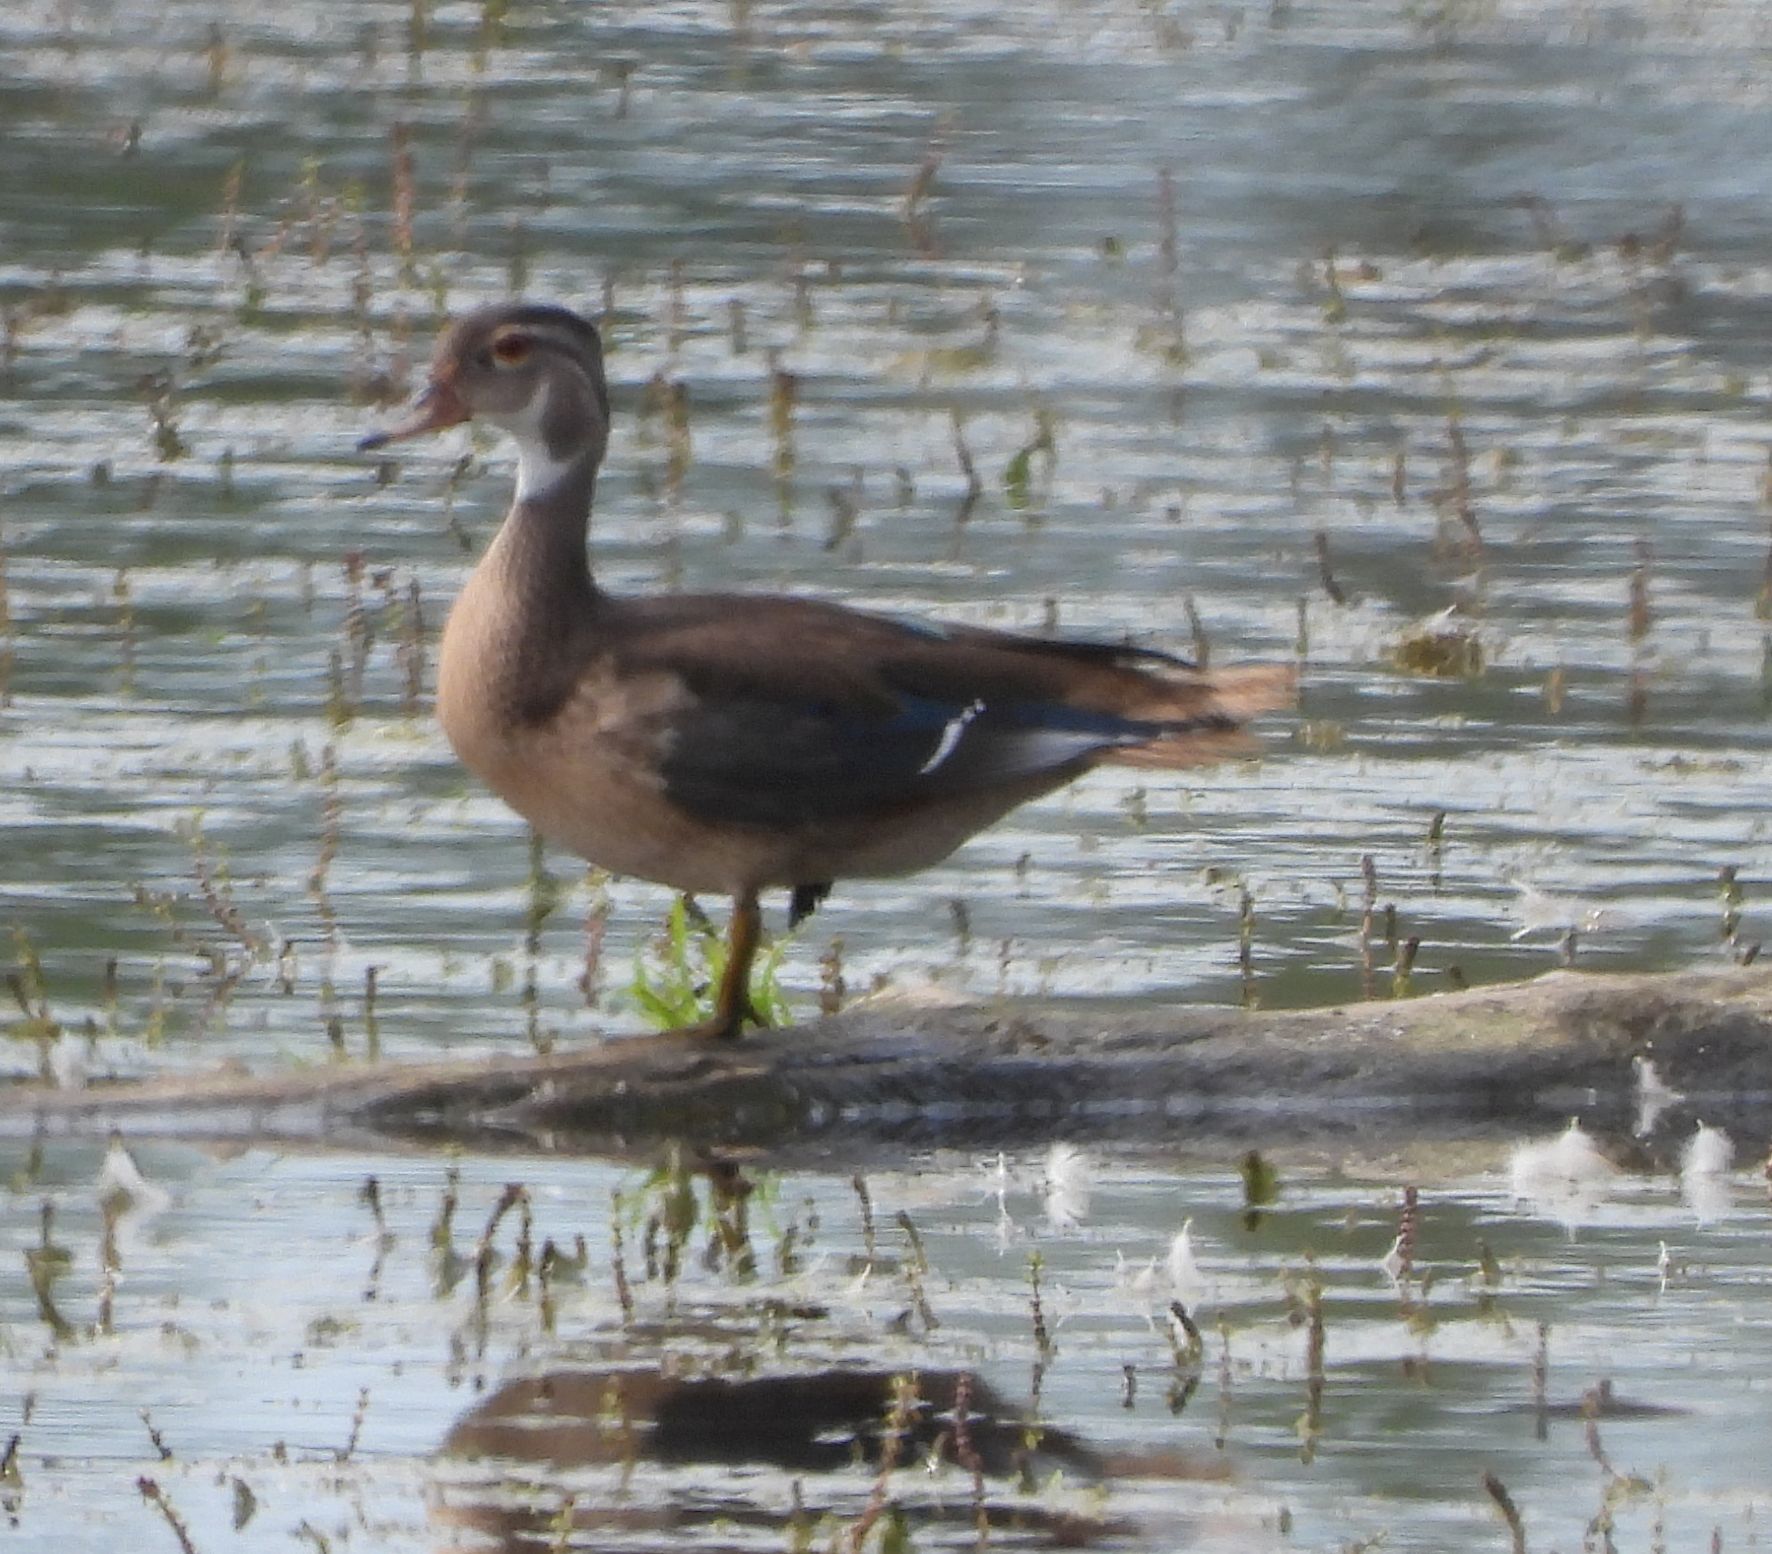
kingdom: Animalia
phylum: Chordata
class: Aves
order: Anseriformes
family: Anatidae
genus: Aix
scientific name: Aix sponsa
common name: Wood duck
